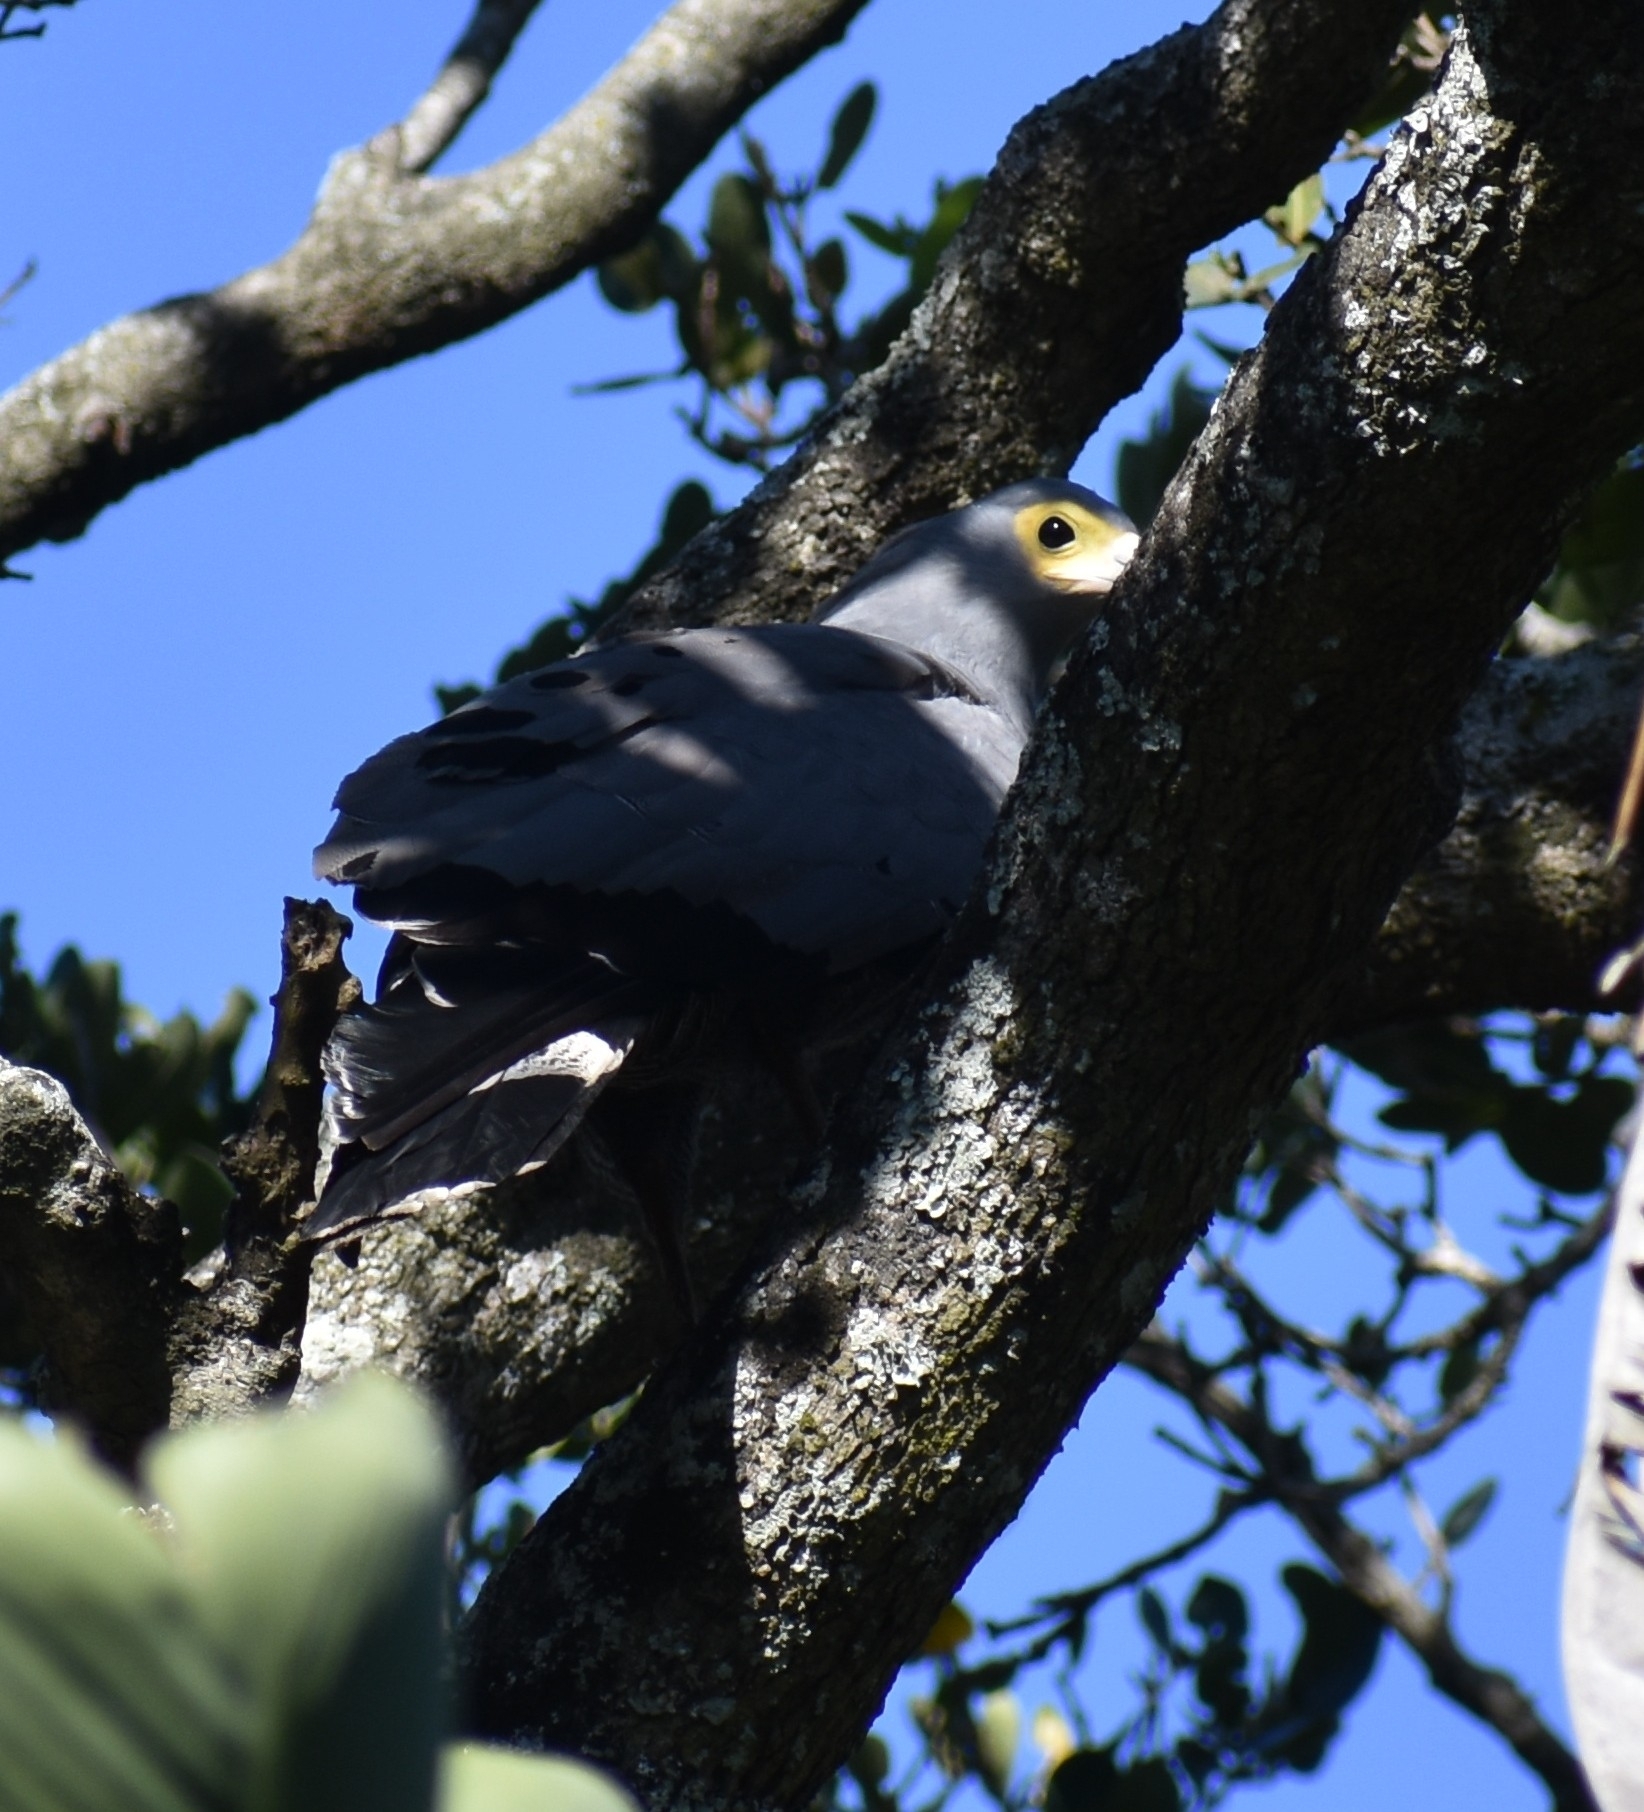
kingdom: Animalia
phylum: Chordata
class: Aves
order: Accipitriformes
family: Accipitridae
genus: Polyboroides
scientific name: Polyboroides typus
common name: African harrier-hawk
